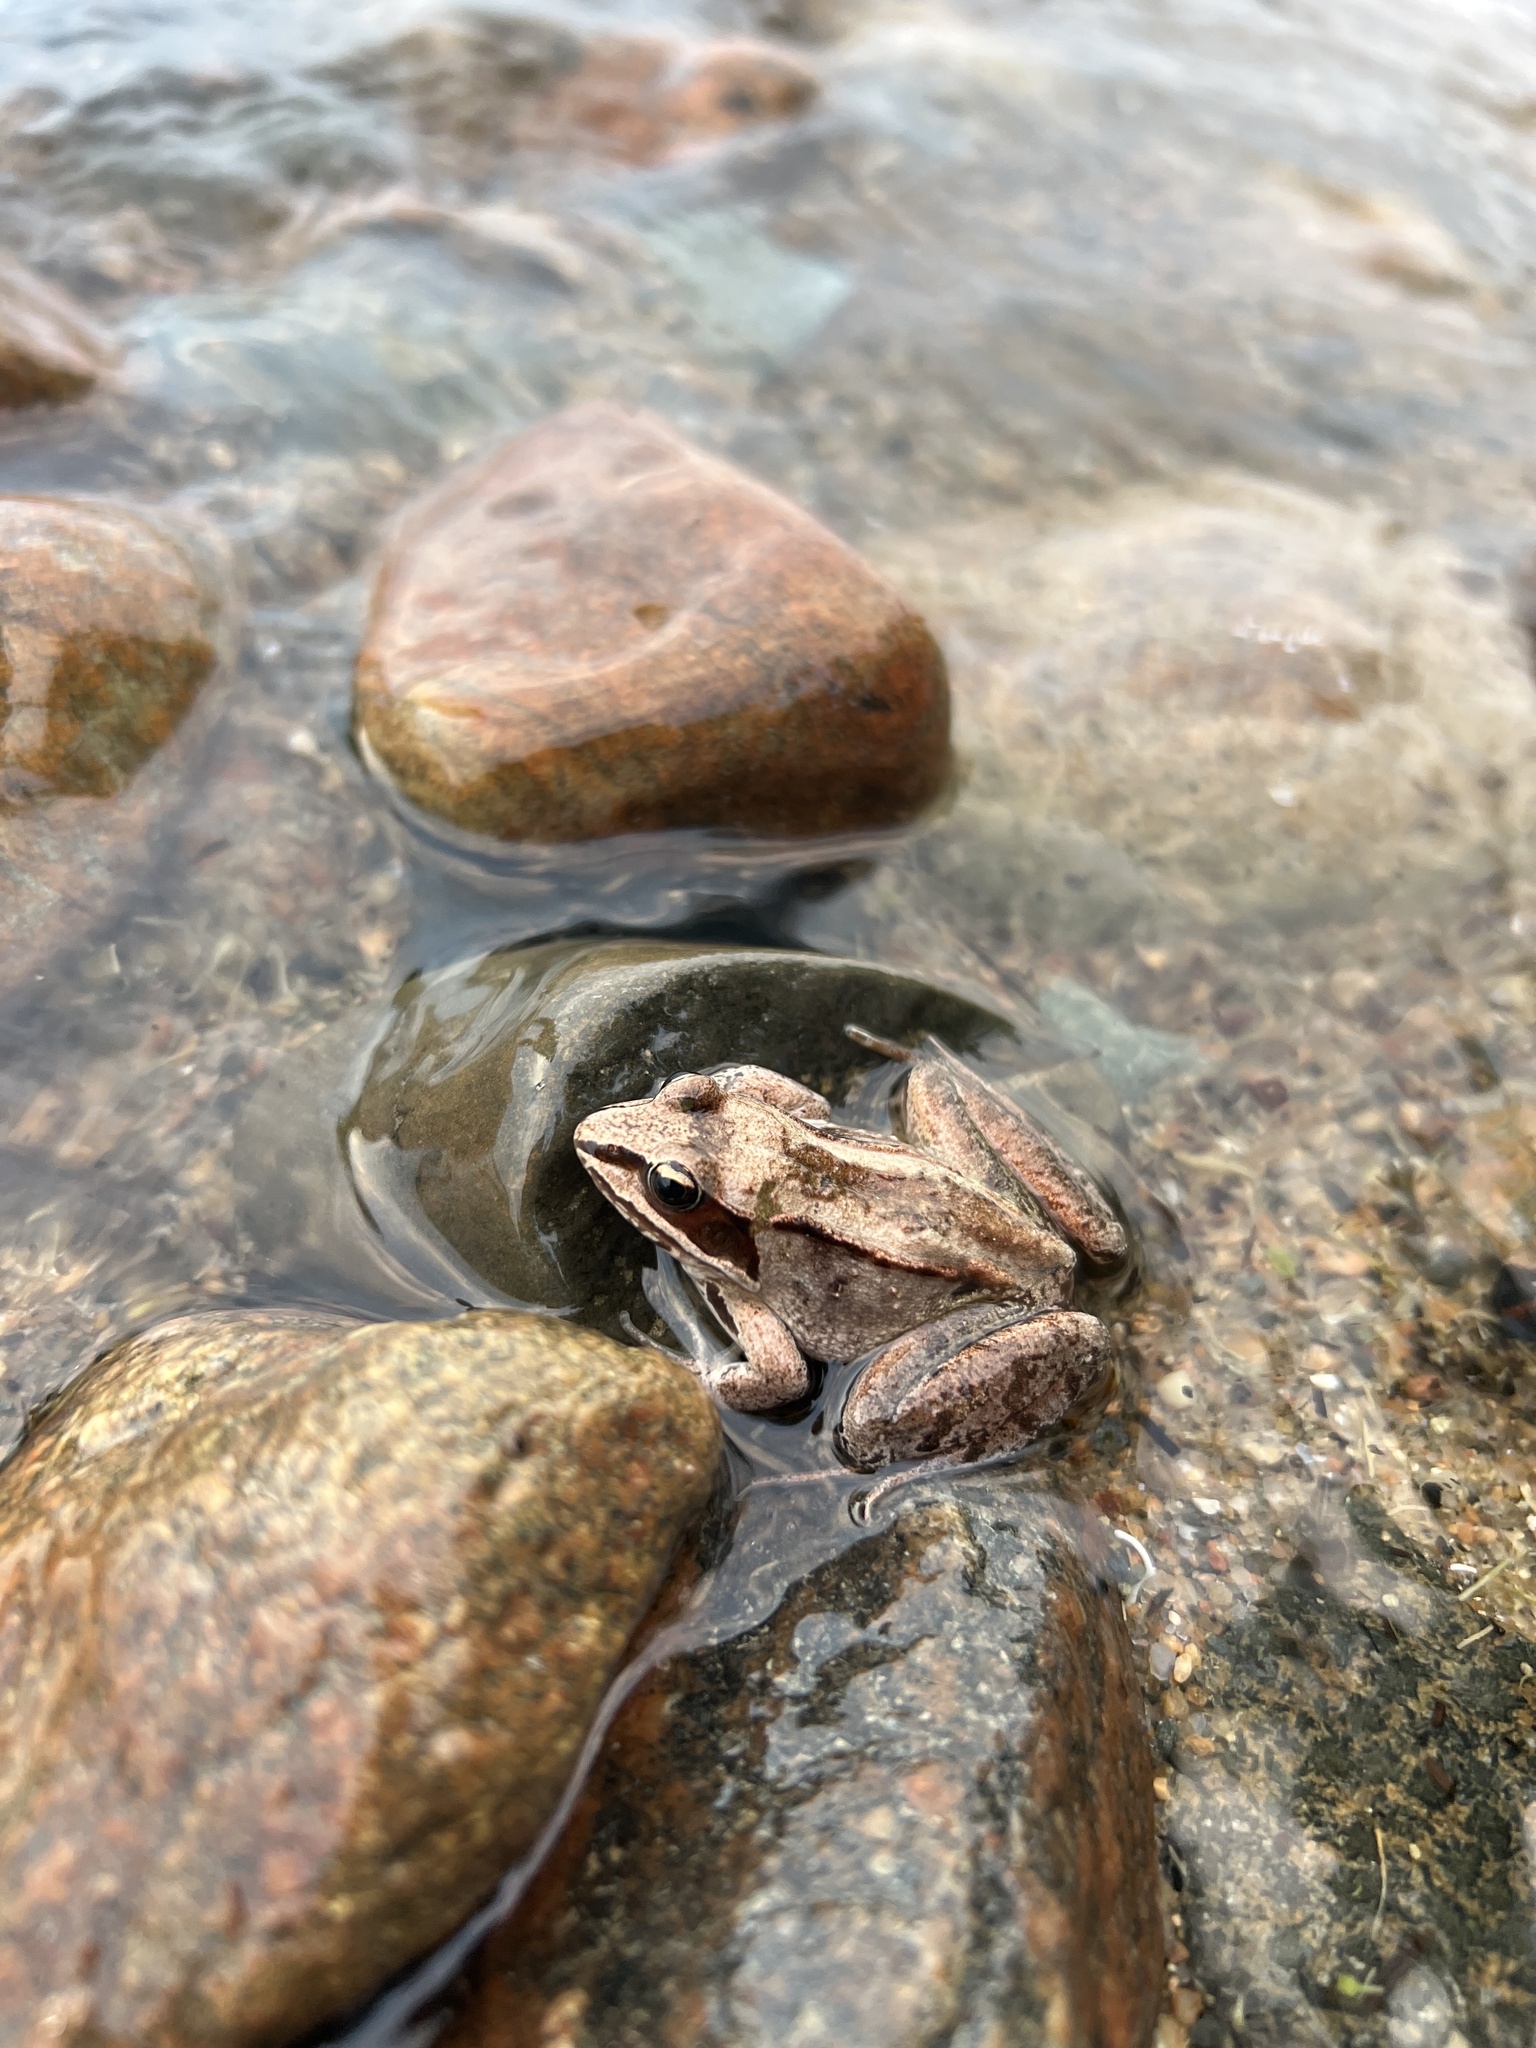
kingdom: Animalia
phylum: Chordata
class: Amphibia
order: Anura
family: Ranidae
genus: Lithobates
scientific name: Lithobates sylvaticus
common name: Wood frog
